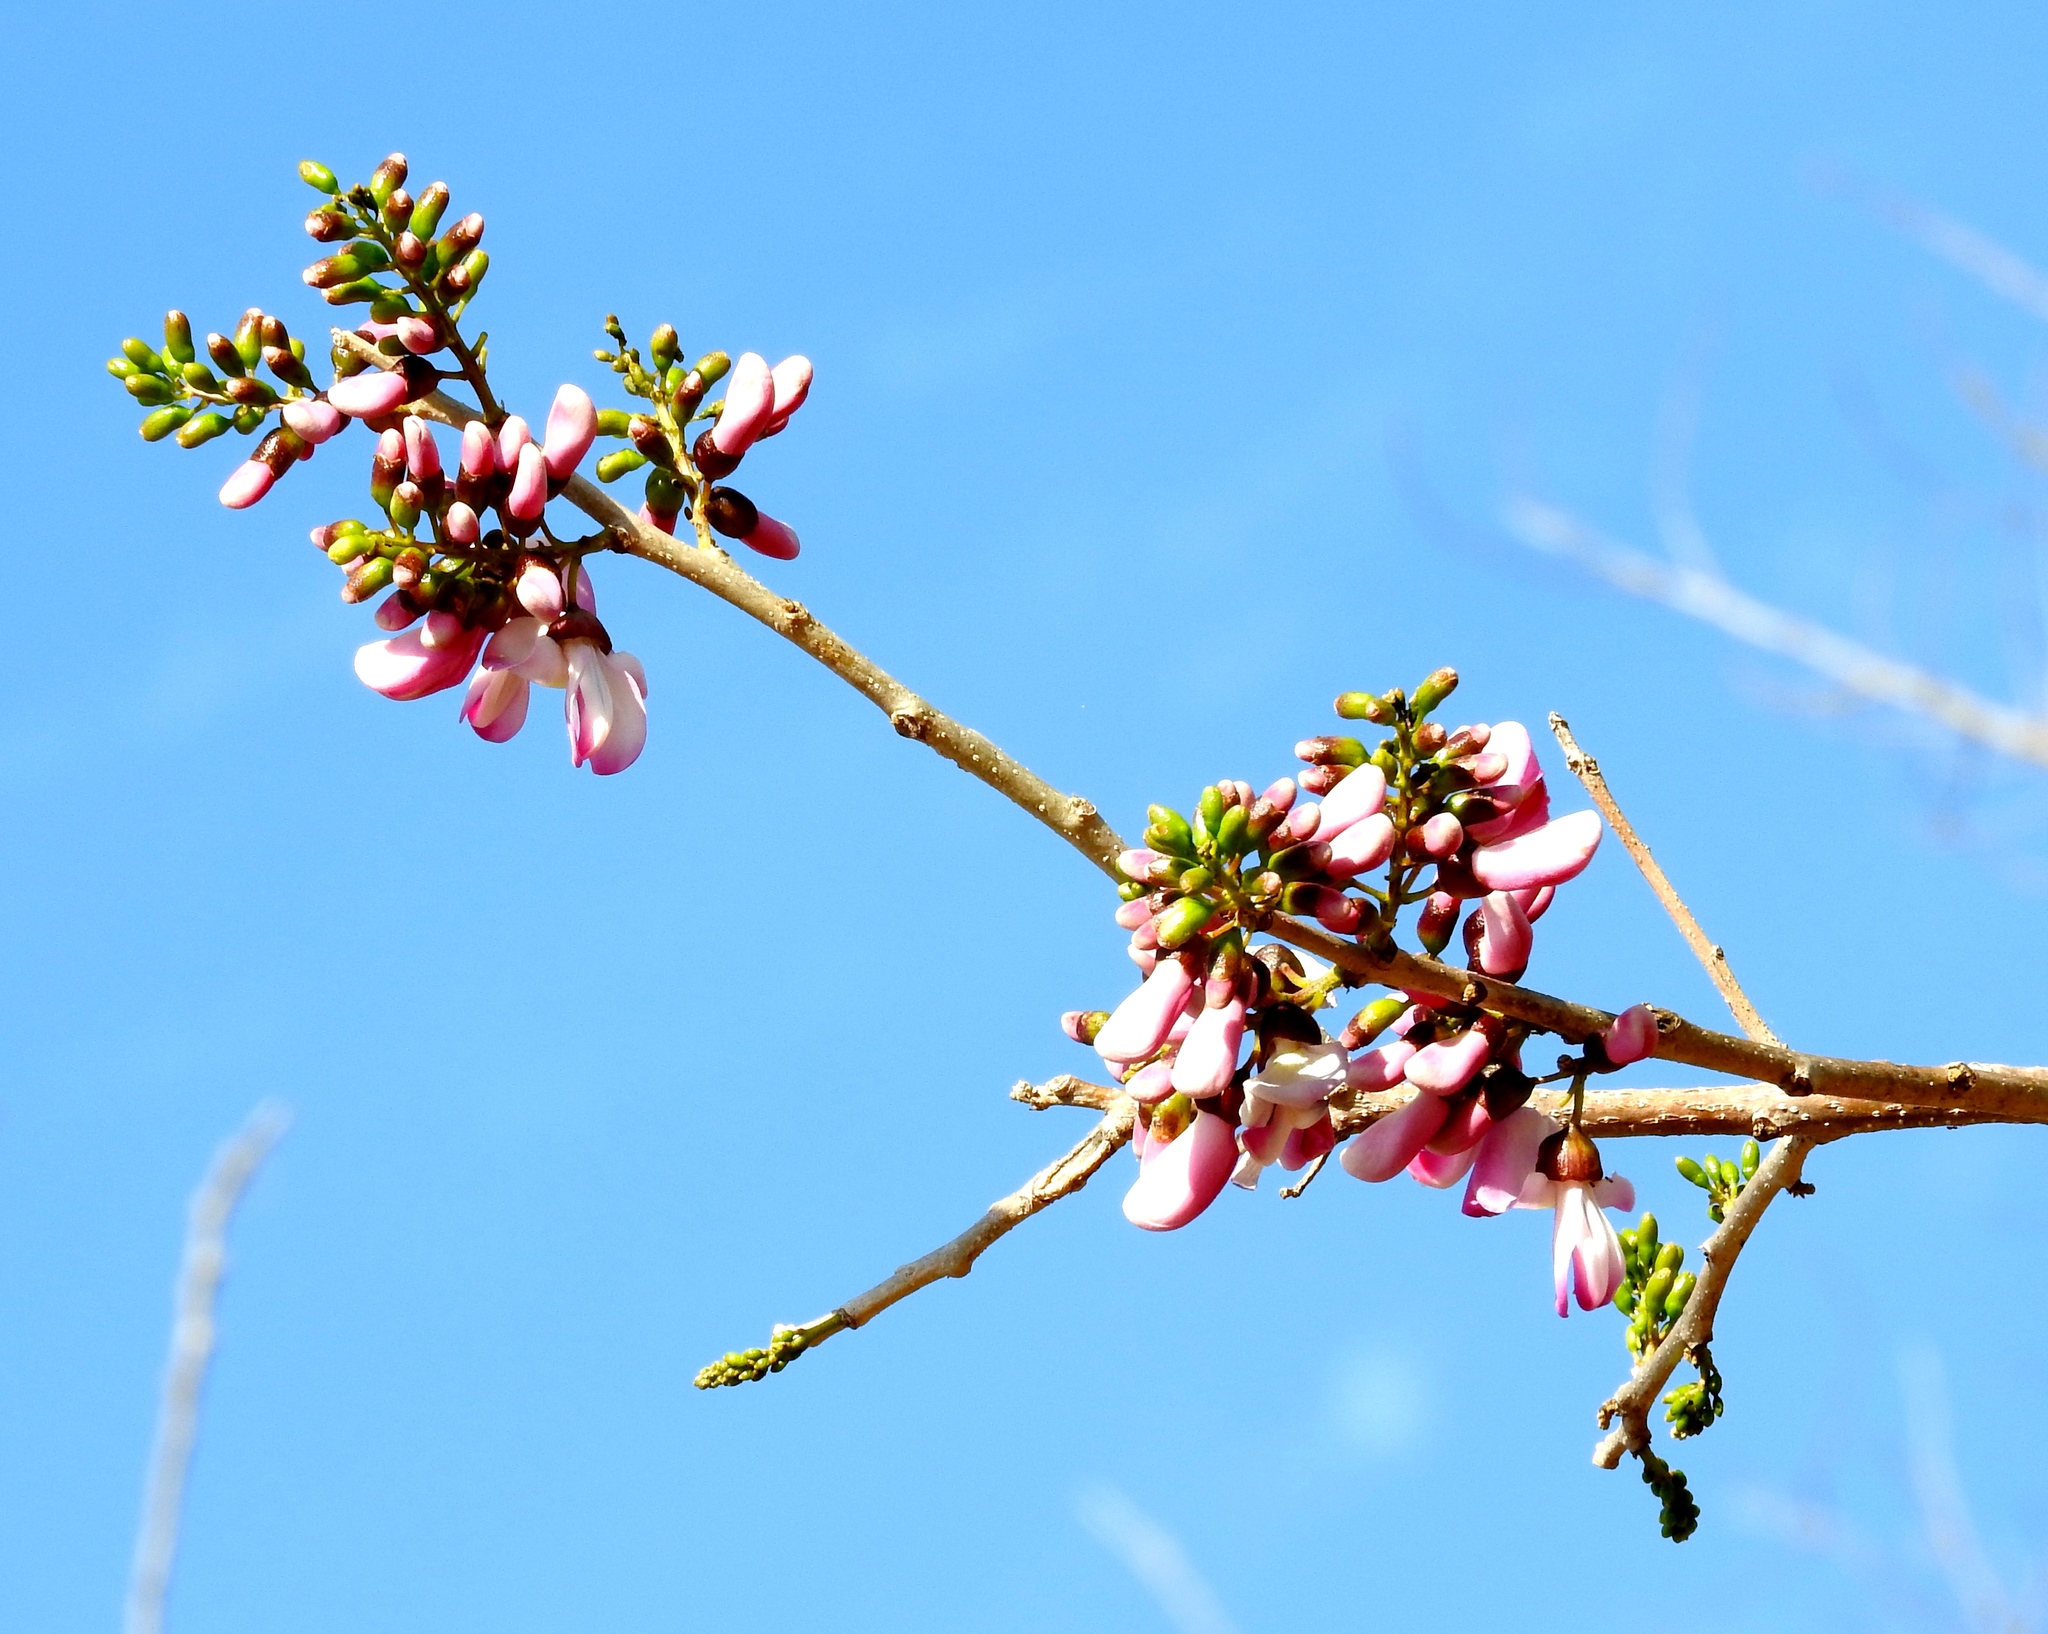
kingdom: Plantae
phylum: Tracheophyta
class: Magnoliopsida
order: Fabales
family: Fabaceae
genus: Gliricidia
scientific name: Gliricidia sepium
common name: Quickstick
